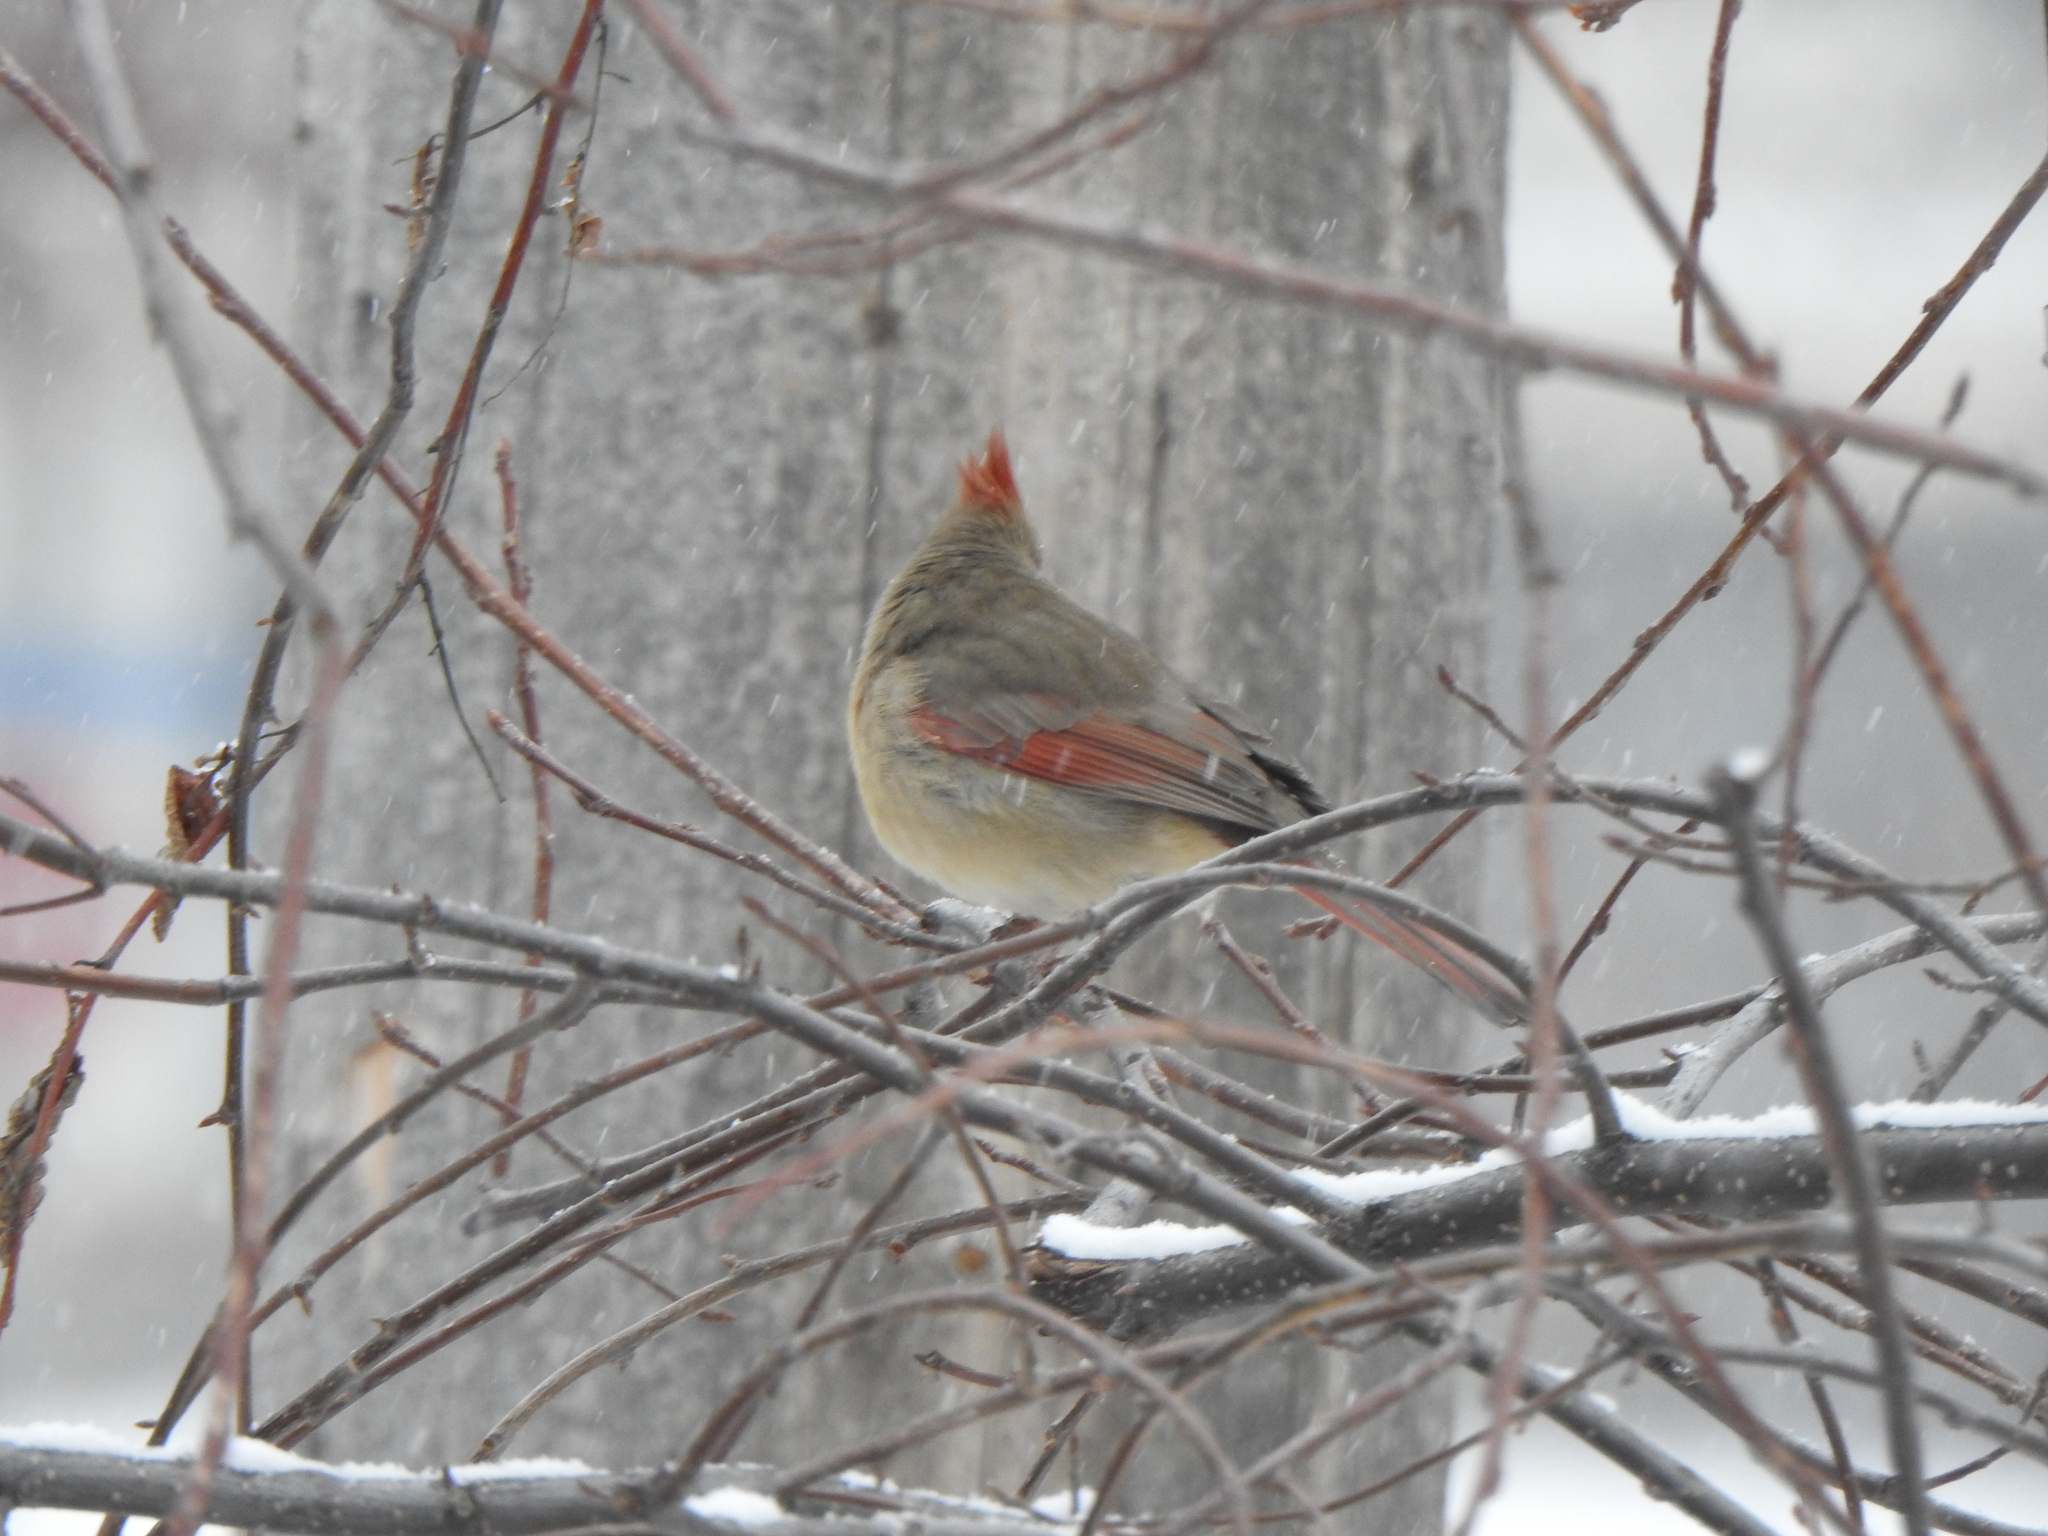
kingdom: Animalia
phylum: Chordata
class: Aves
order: Passeriformes
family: Cardinalidae
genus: Cardinalis
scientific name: Cardinalis cardinalis
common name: Northern cardinal
